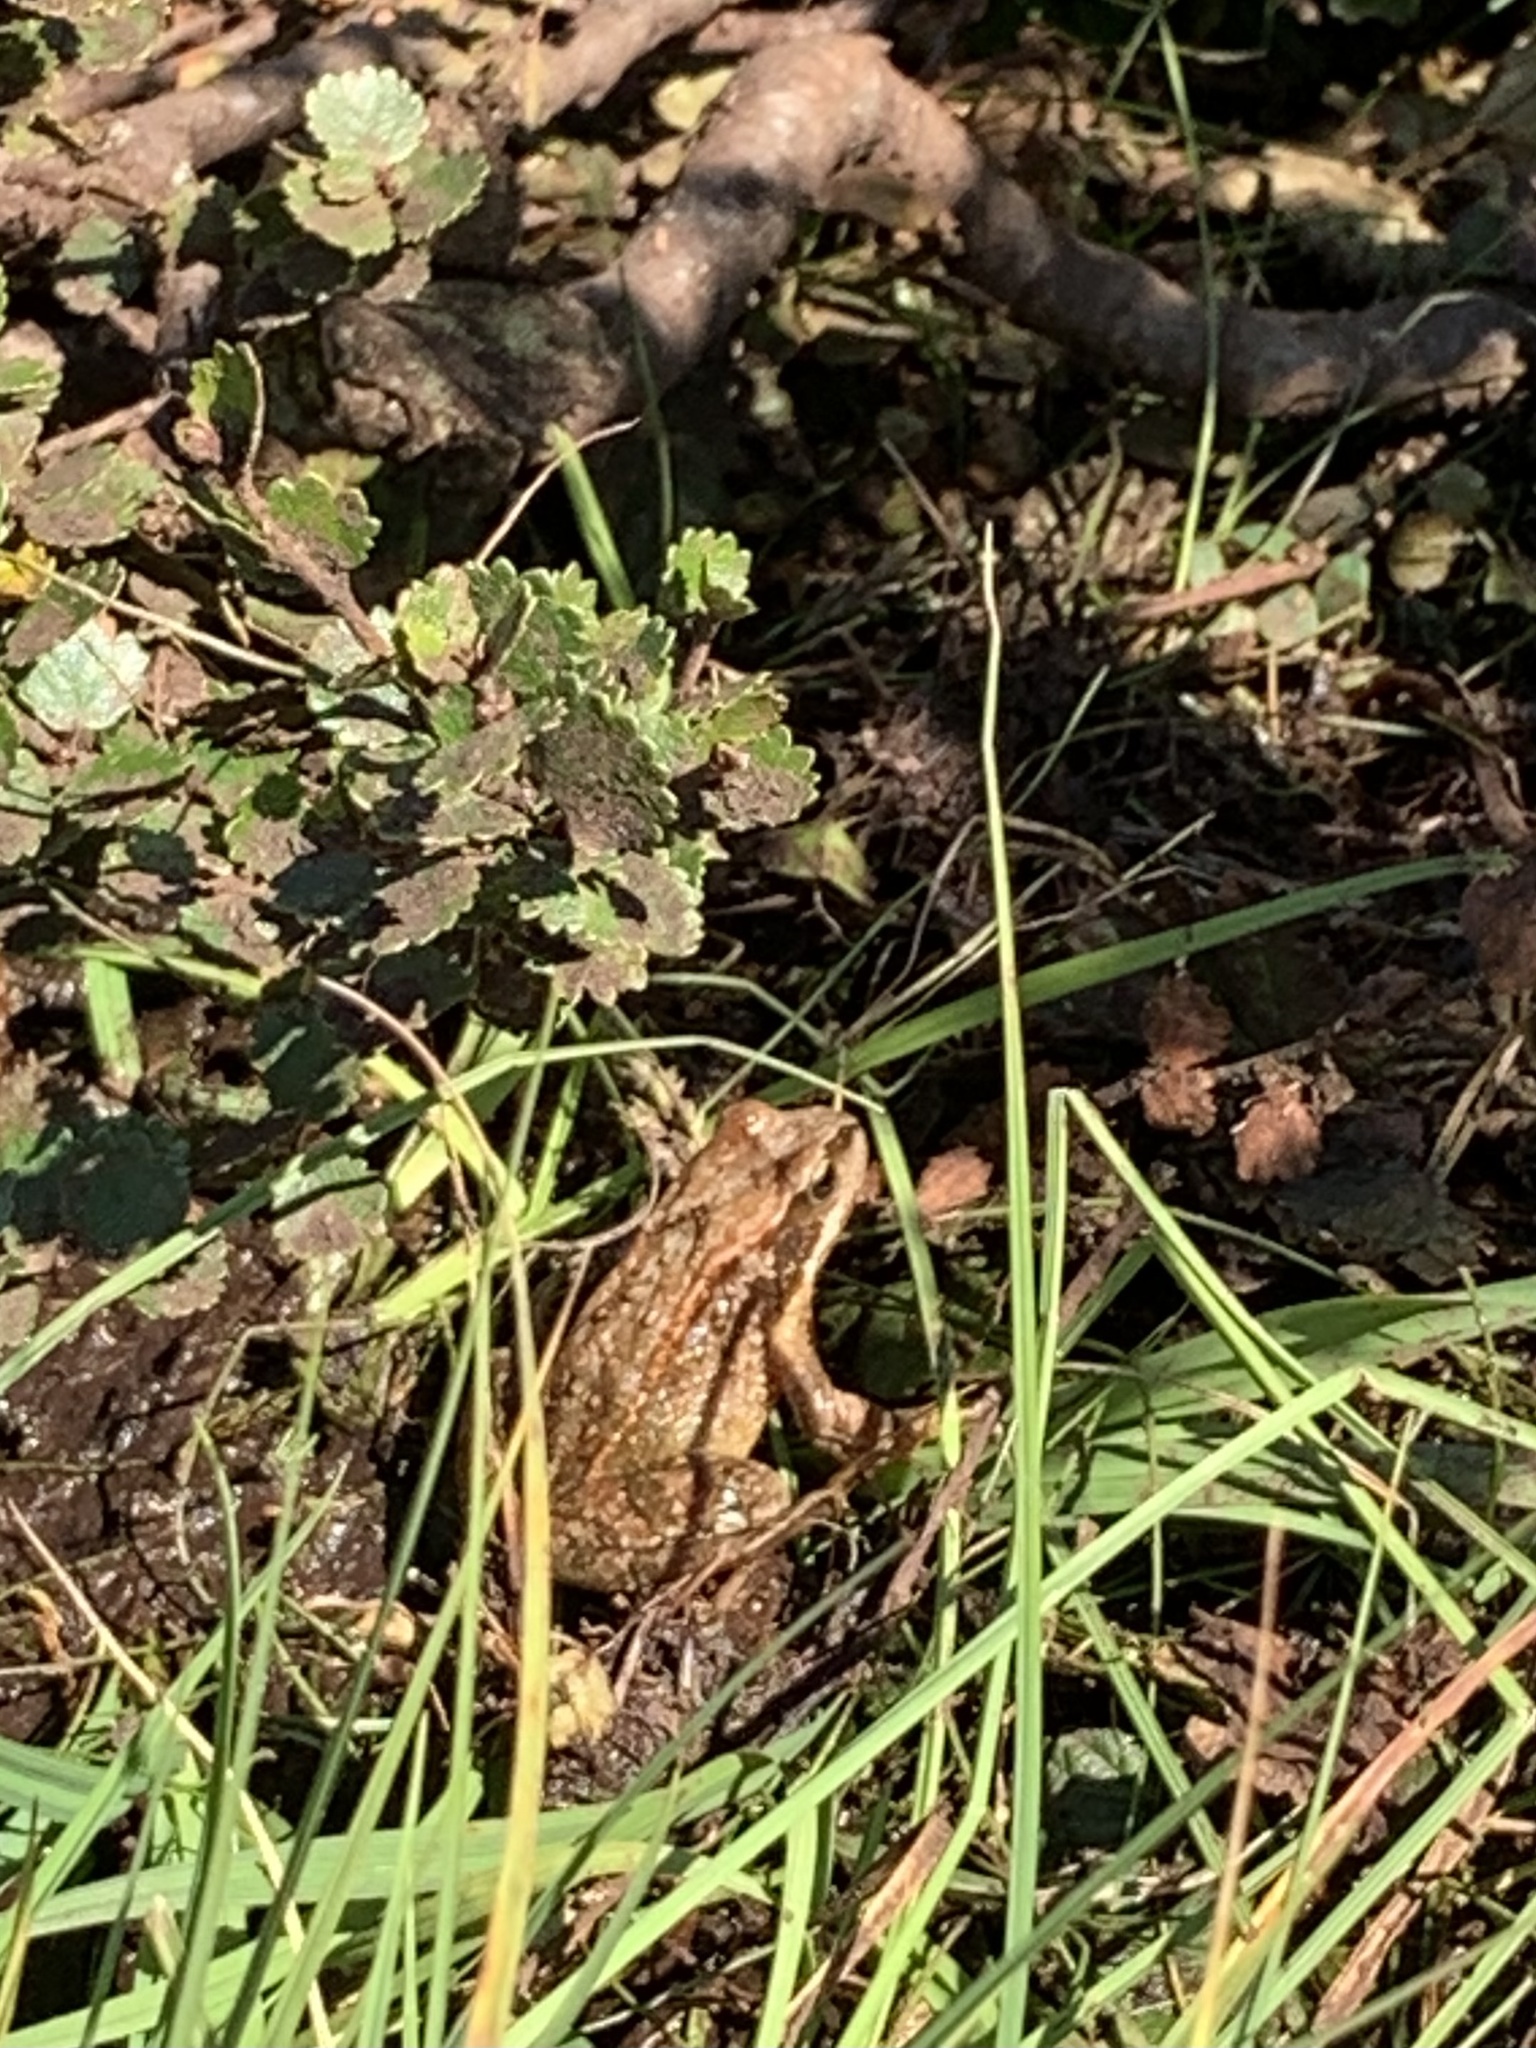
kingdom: Animalia
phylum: Chordata
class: Amphibia
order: Anura
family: Ranidae
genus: Rana
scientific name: Rana temporaria
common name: Common frog
